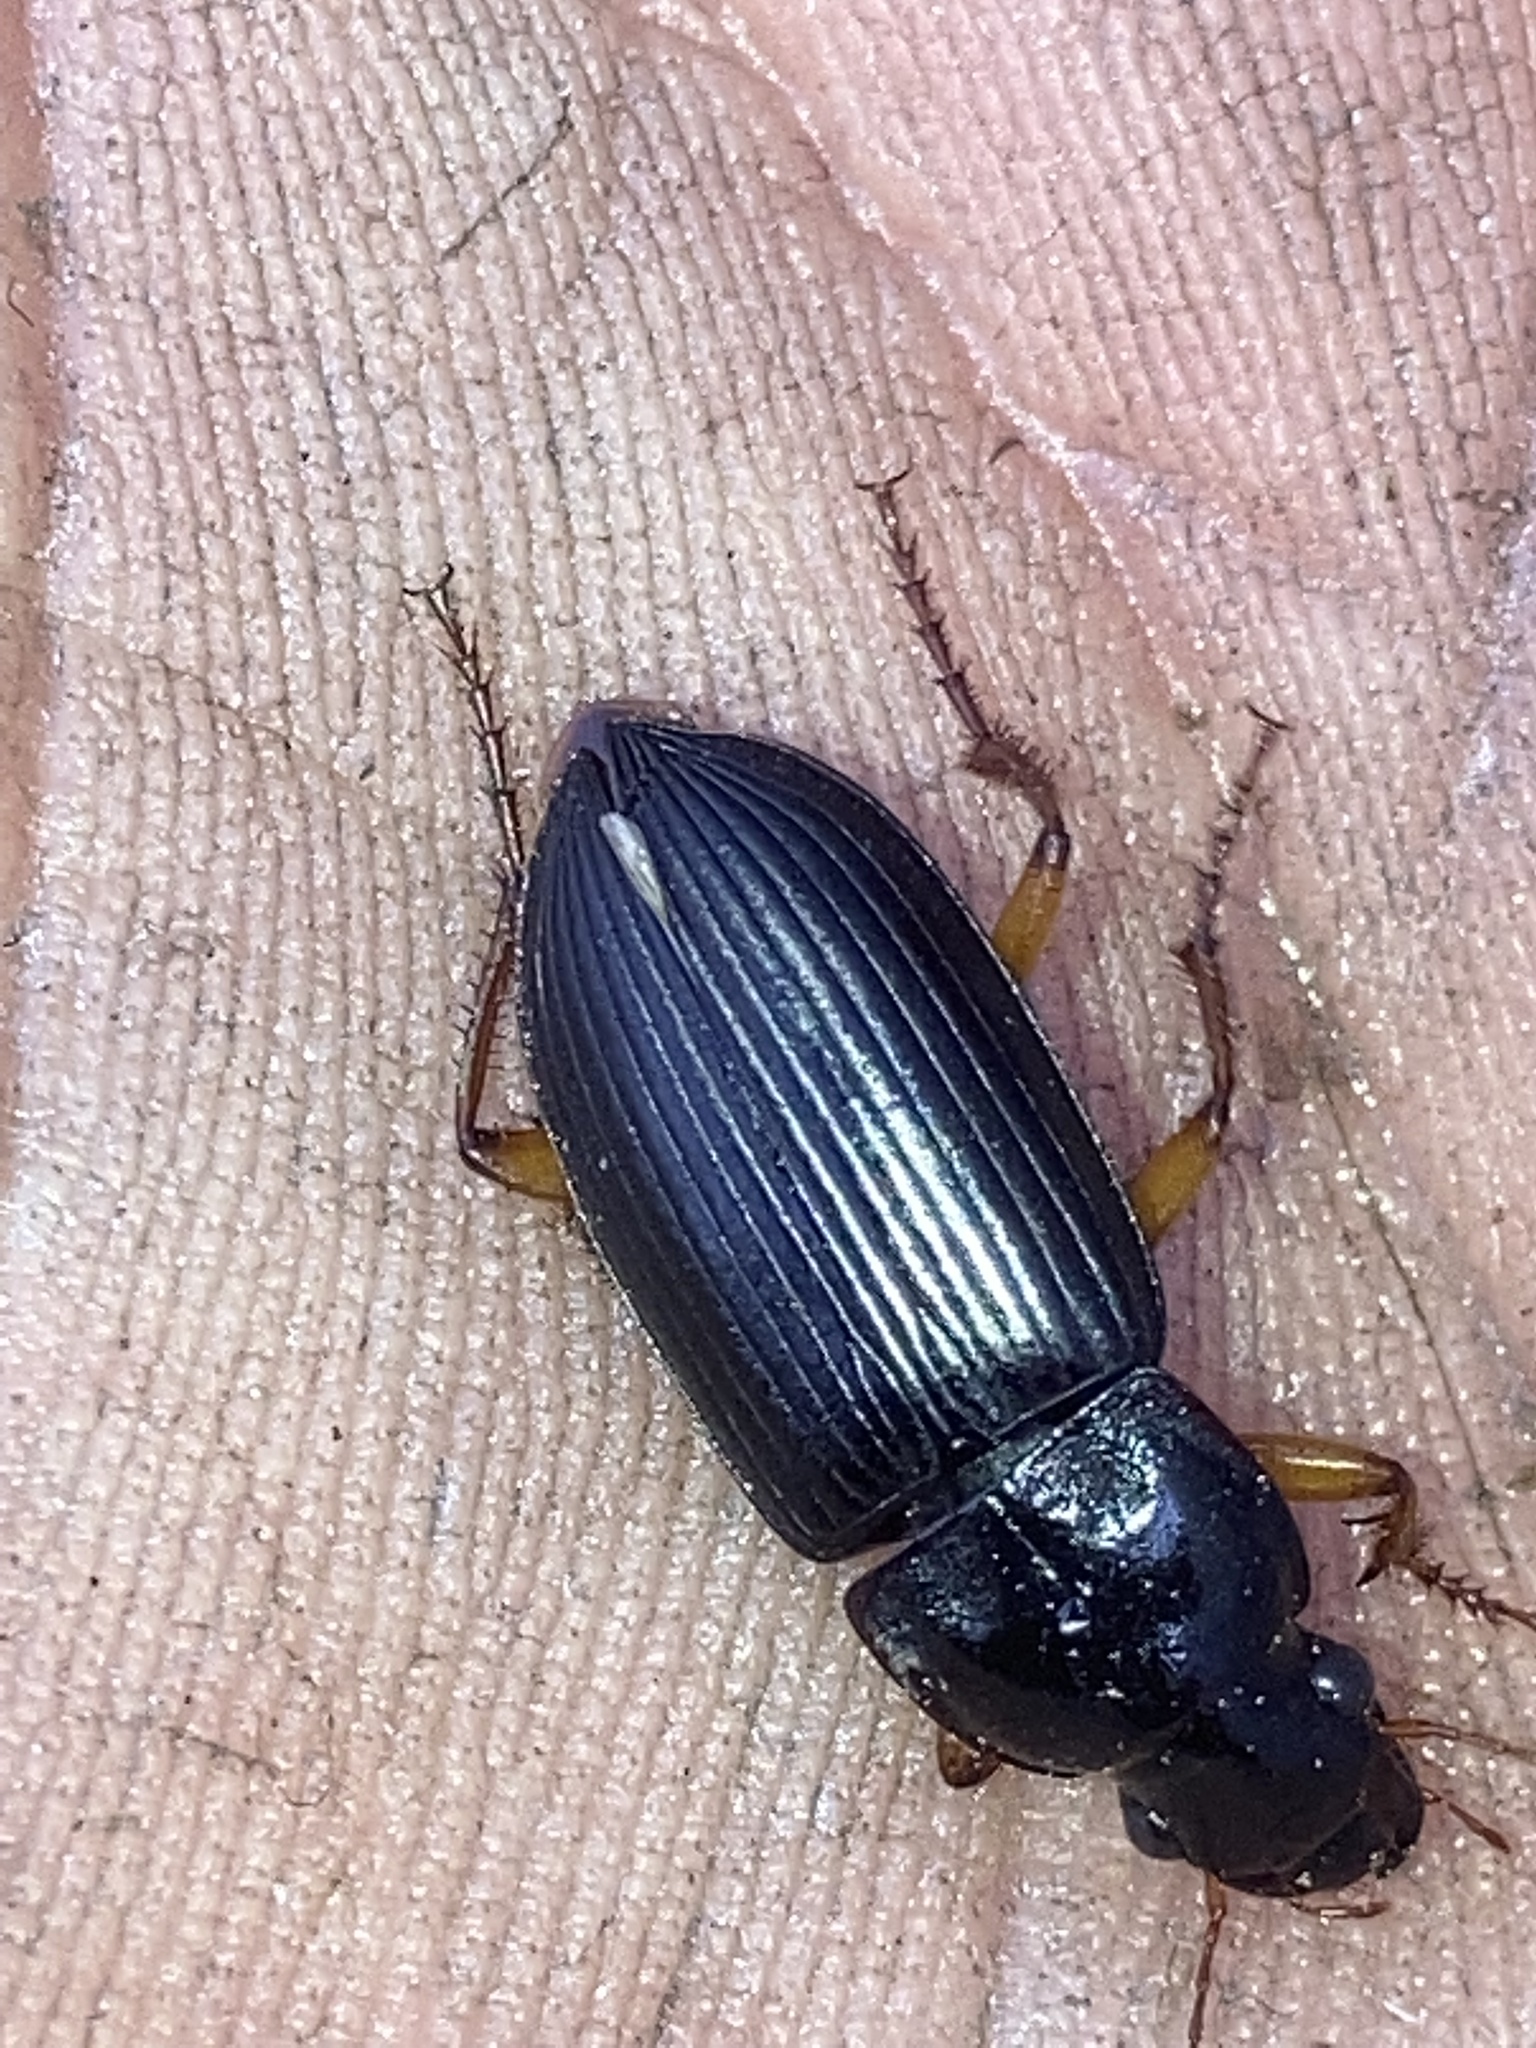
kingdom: Animalia
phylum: Arthropoda
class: Insecta
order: Coleoptera
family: Carabidae
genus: Harpalus
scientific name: Harpalus pensylvanicus
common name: Pennsylvania dingy ground beetle
